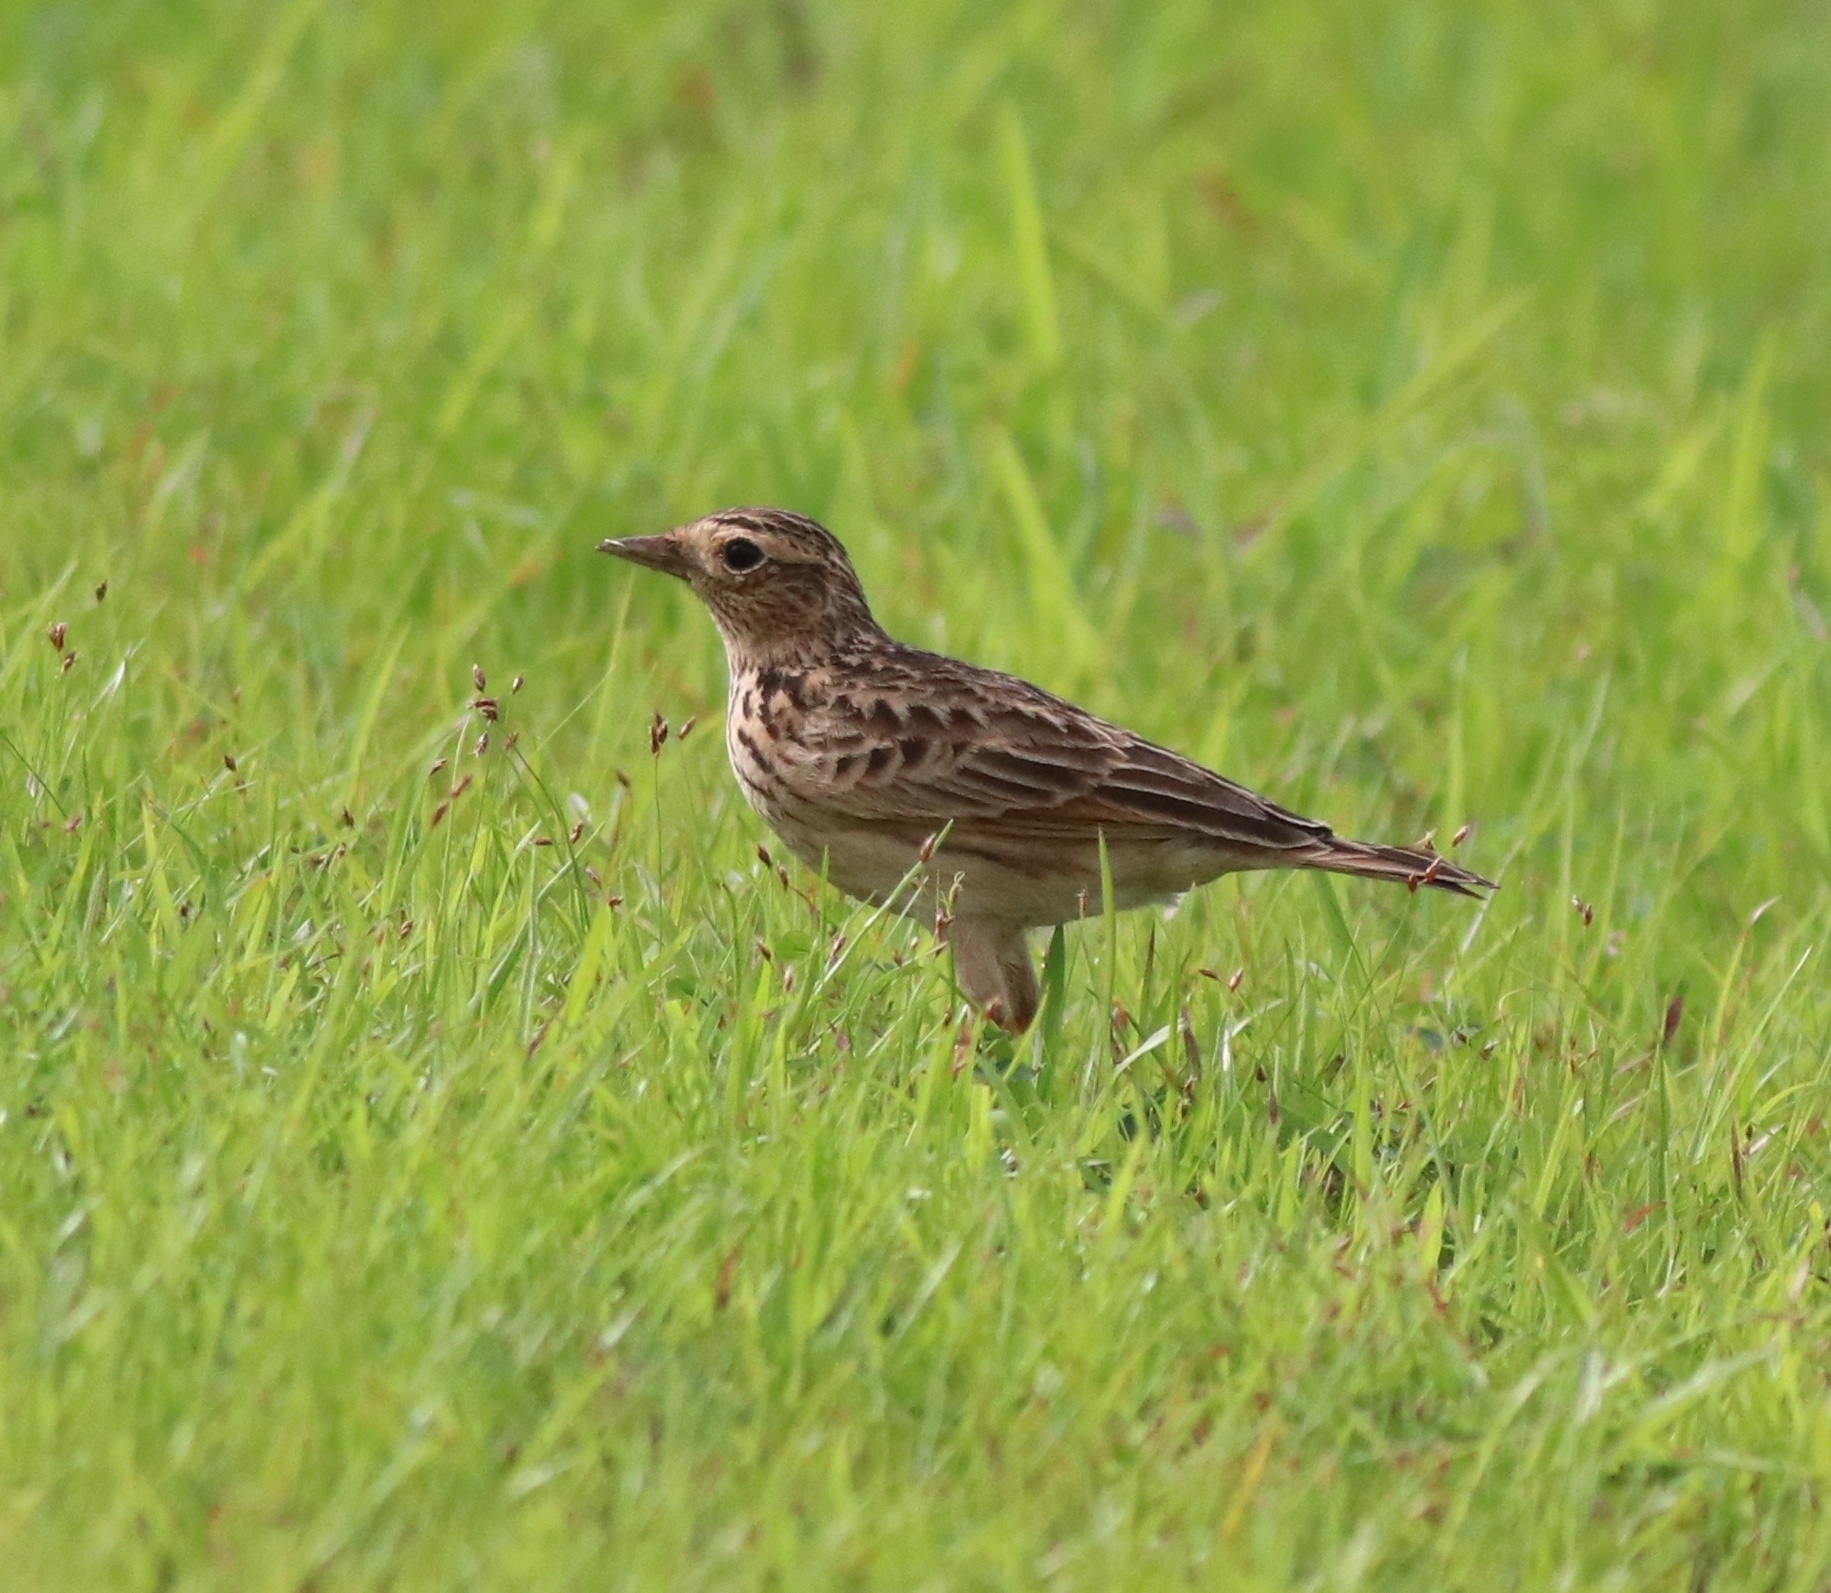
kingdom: Animalia
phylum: Chordata
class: Aves
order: Passeriformes
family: Alaudidae
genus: Alauda
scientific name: Alauda gulgula
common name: Oriental skylark
